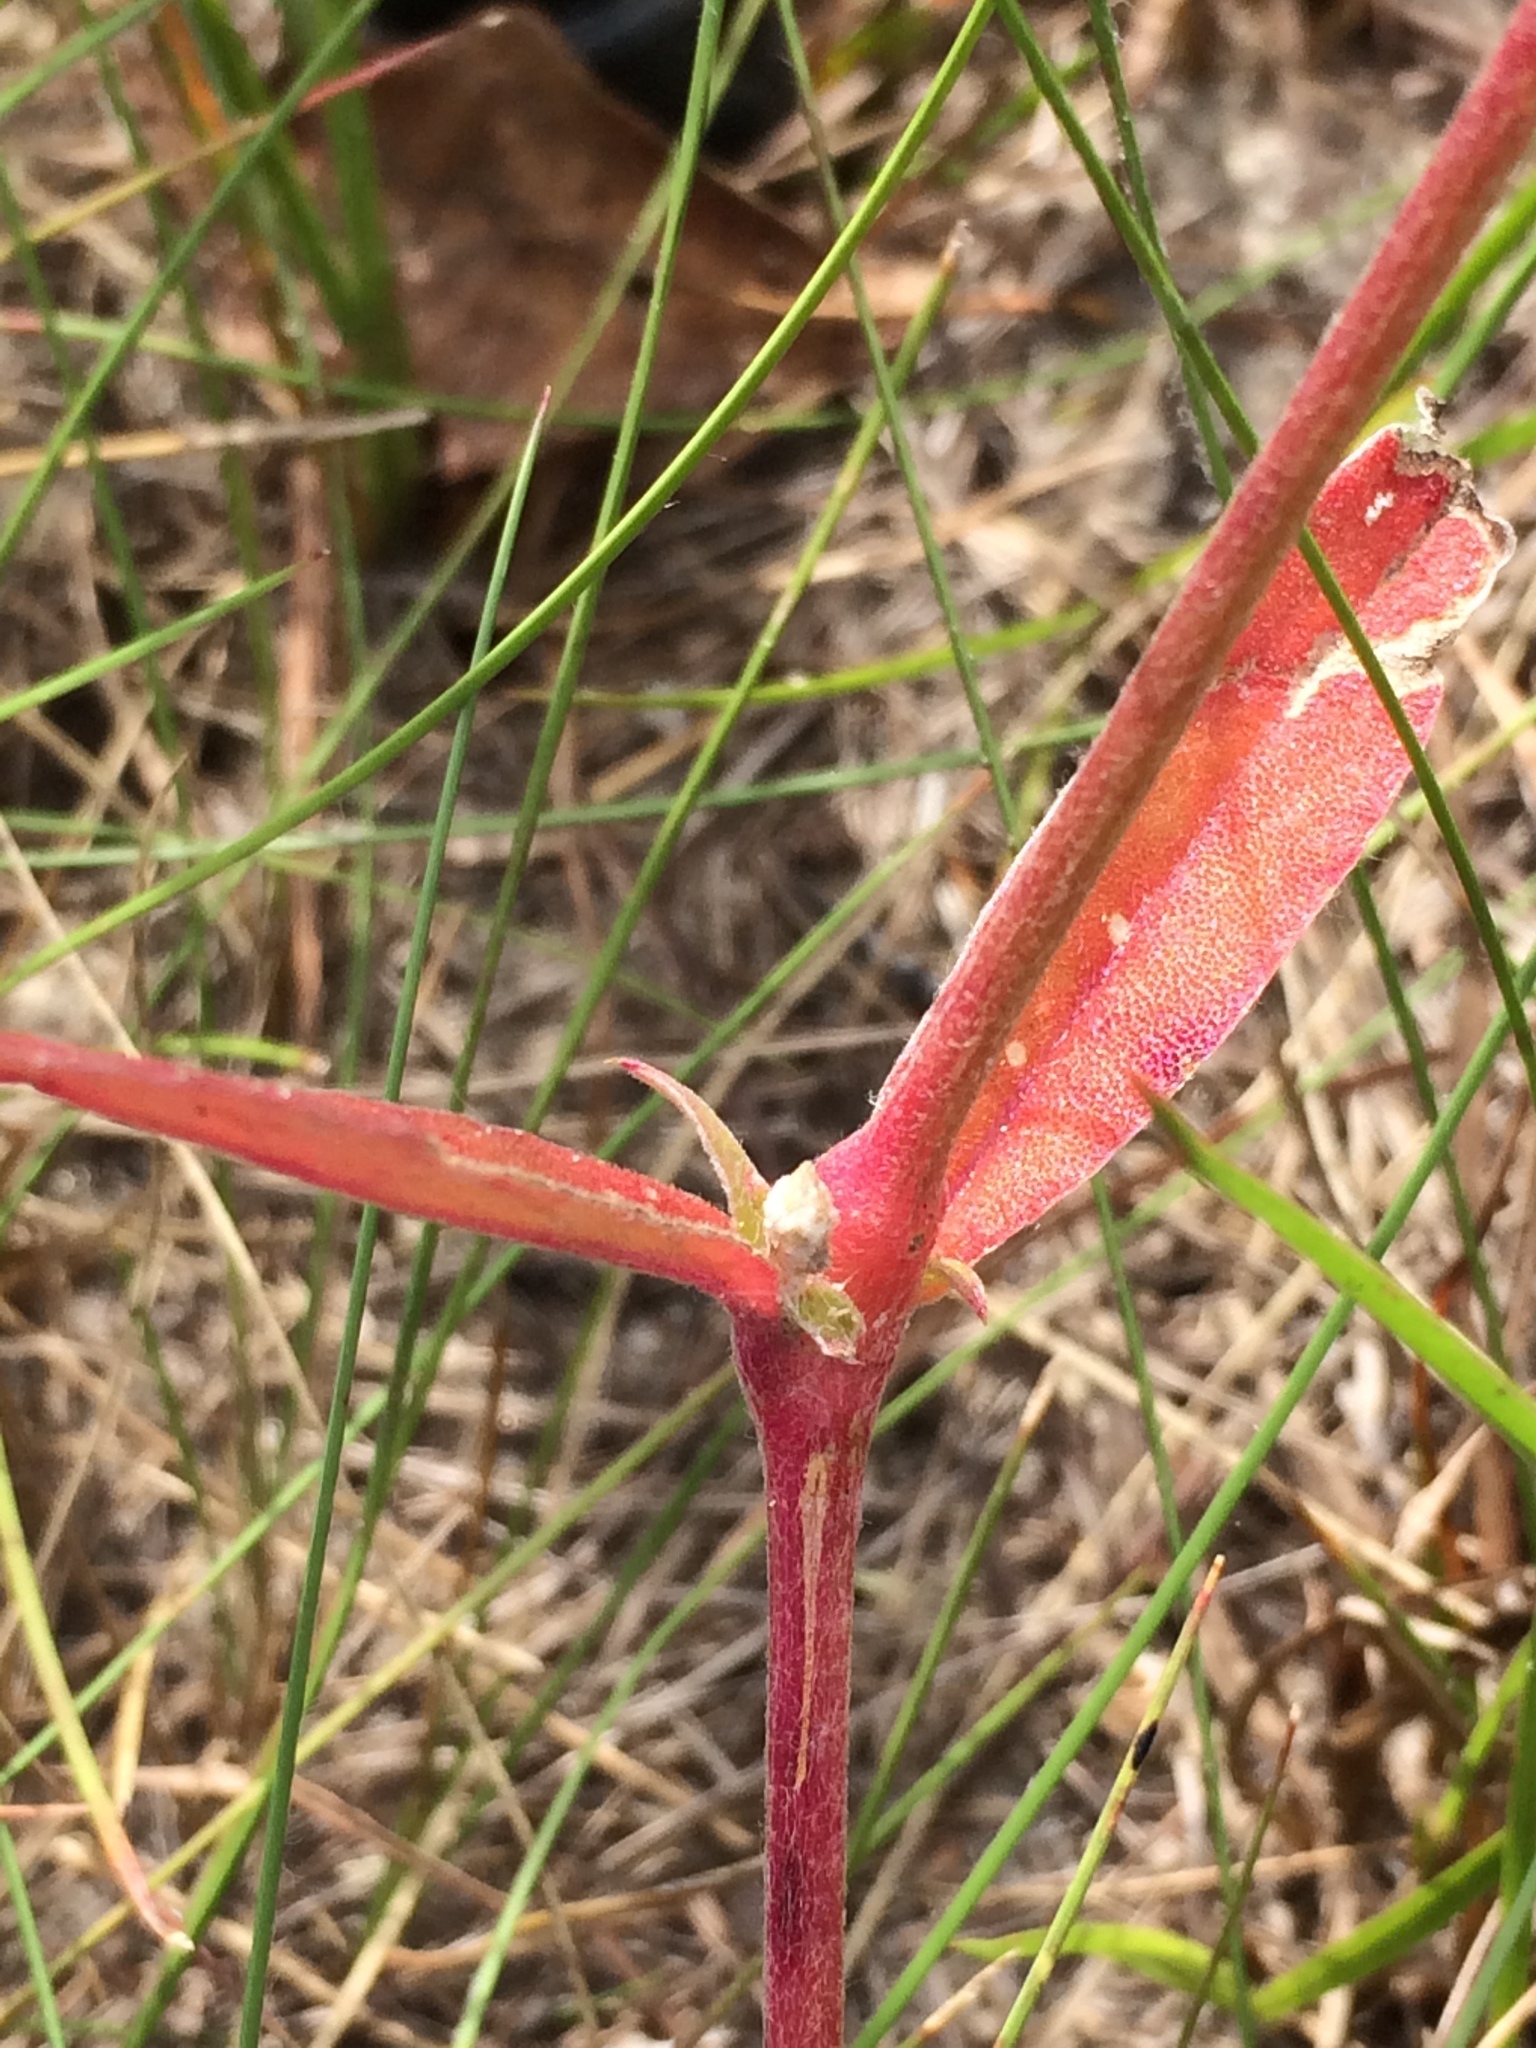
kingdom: Plantae
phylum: Tracheophyta
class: Magnoliopsida
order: Caryophyllales
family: Amaranthaceae
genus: Froelichia
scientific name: Froelichia floridana
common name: Florida snake-cotton
